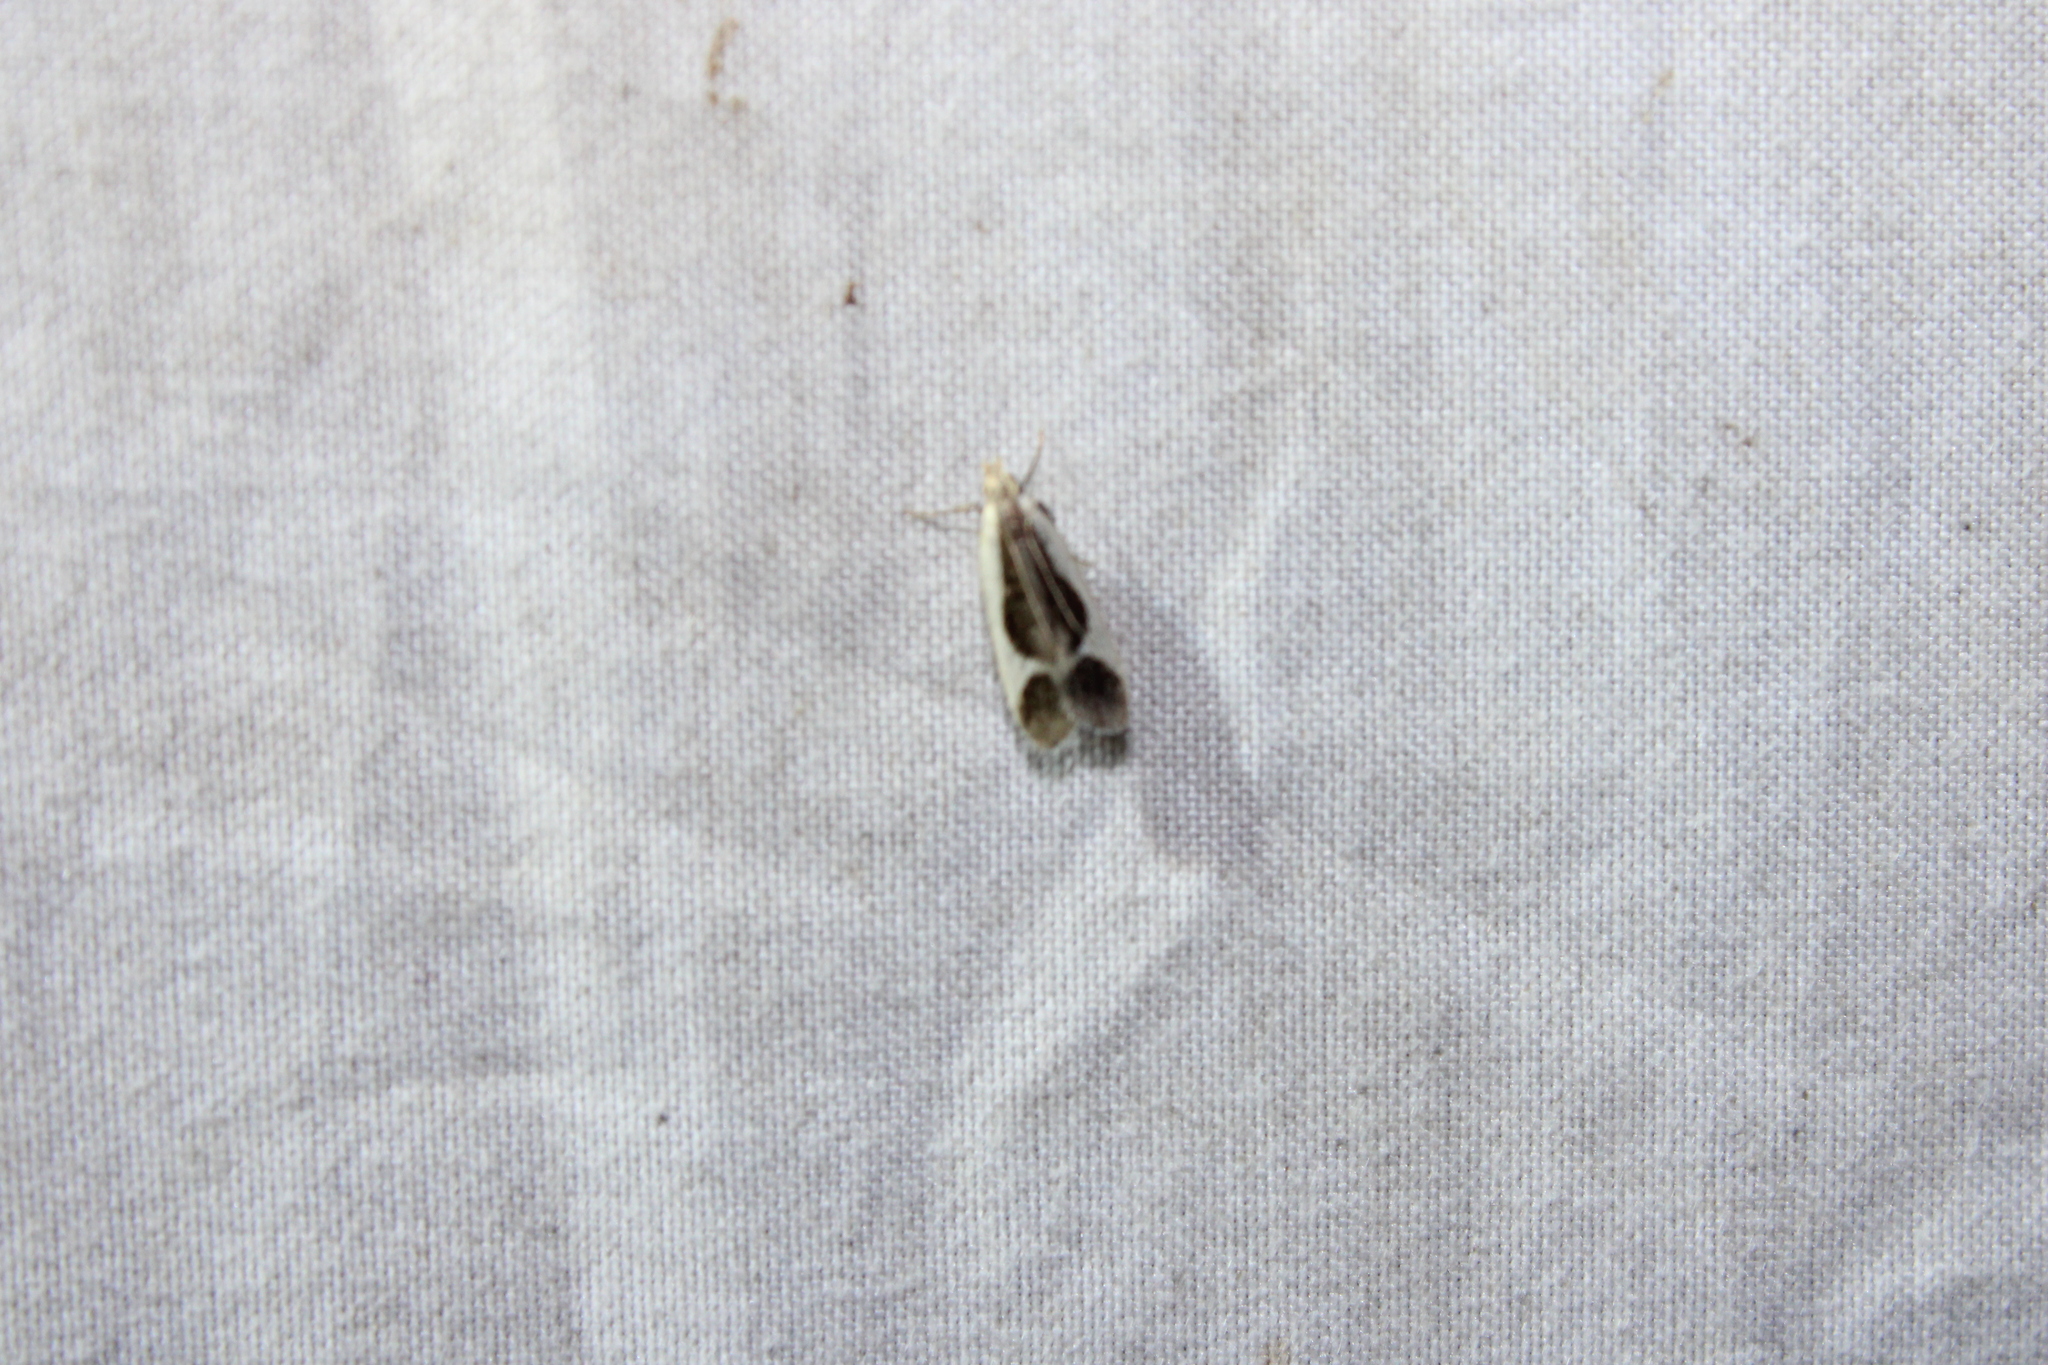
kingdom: Animalia
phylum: Arthropoda
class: Insecta
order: Lepidoptera
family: Gelechiidae
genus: Dichomeris
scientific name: Dichomeris flavocostella
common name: Cream-edged dichomeris moth
